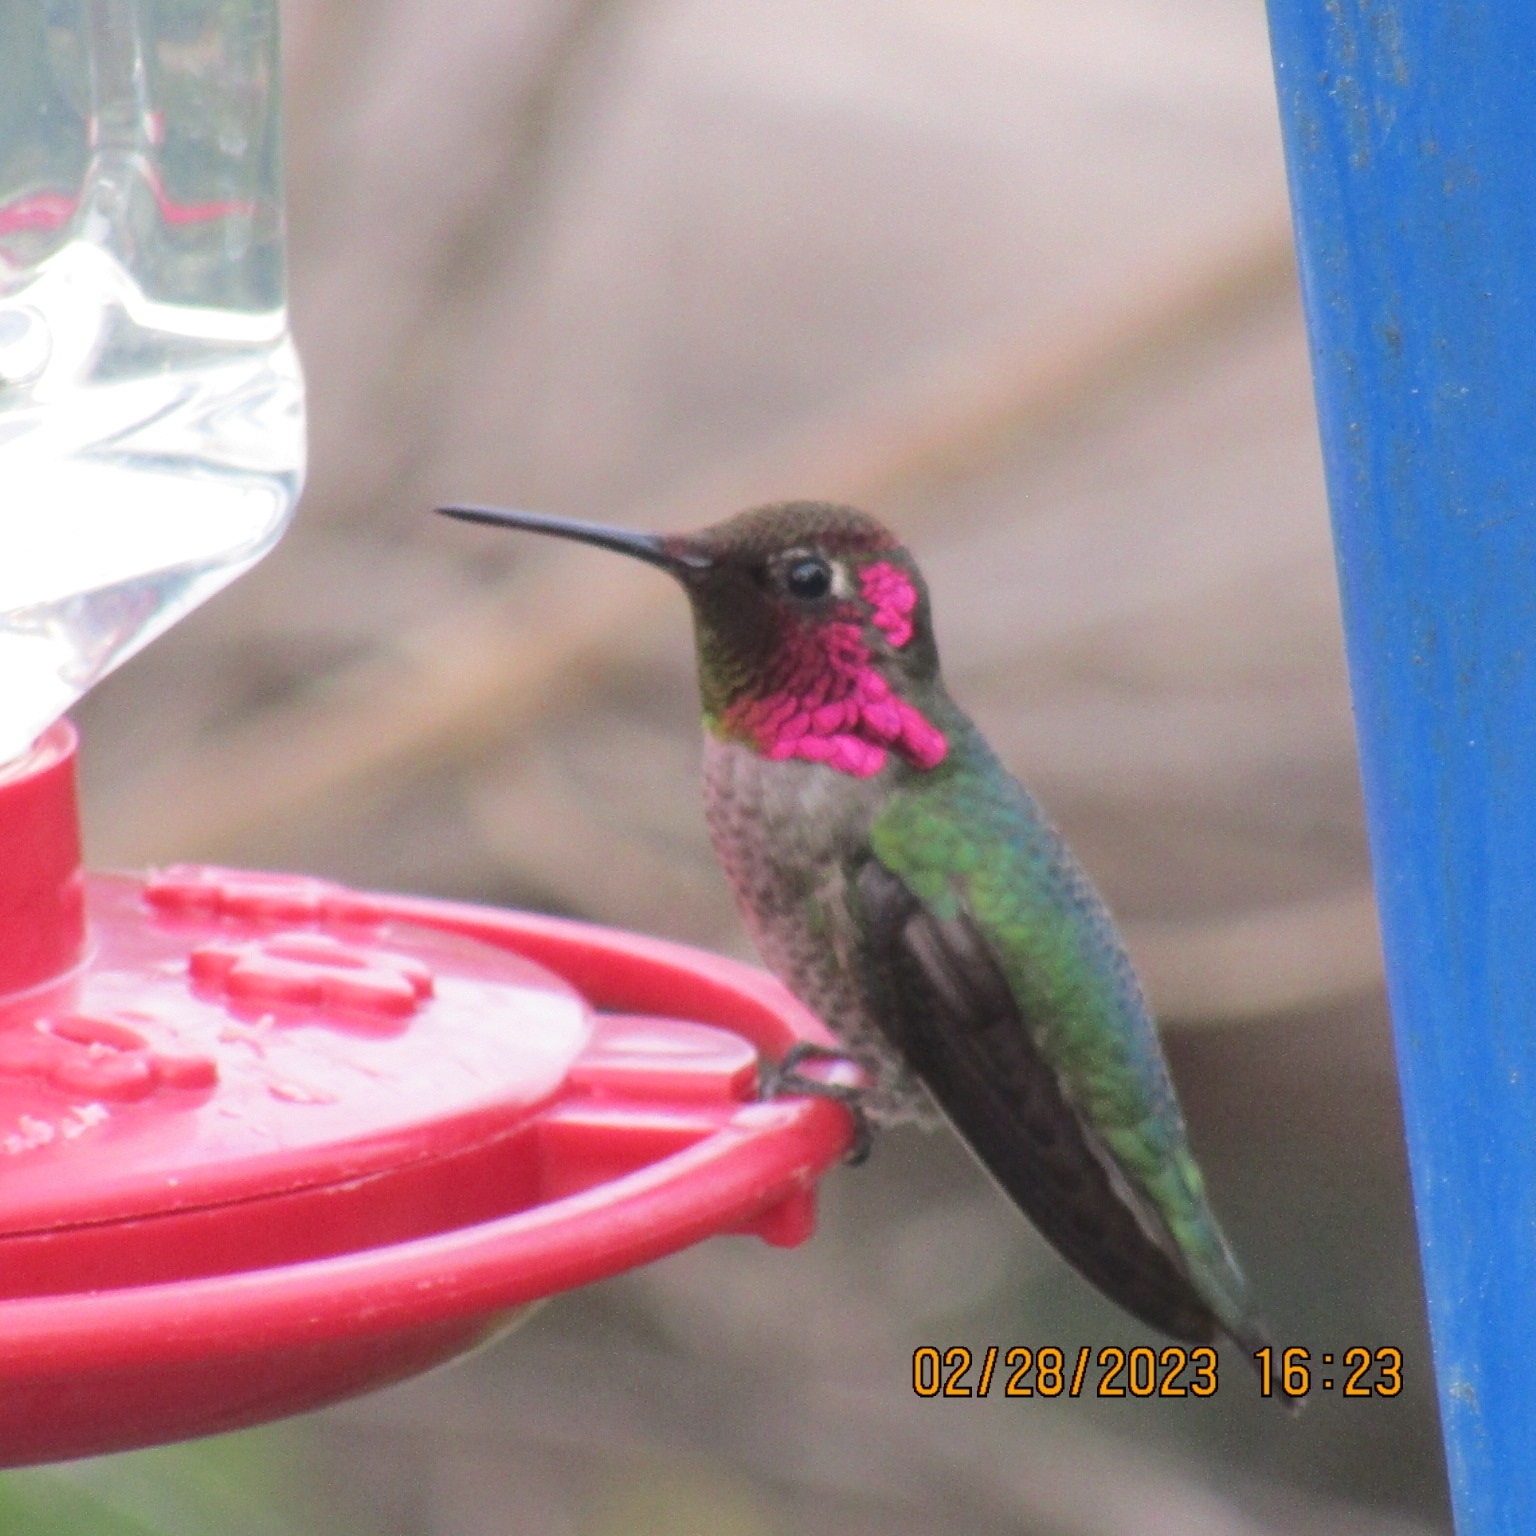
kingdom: Animalia
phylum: Chordata
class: Aves
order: Apodiformes
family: Trochilidae
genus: Calypte
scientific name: Calypte anna
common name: Anna's hummingbird
